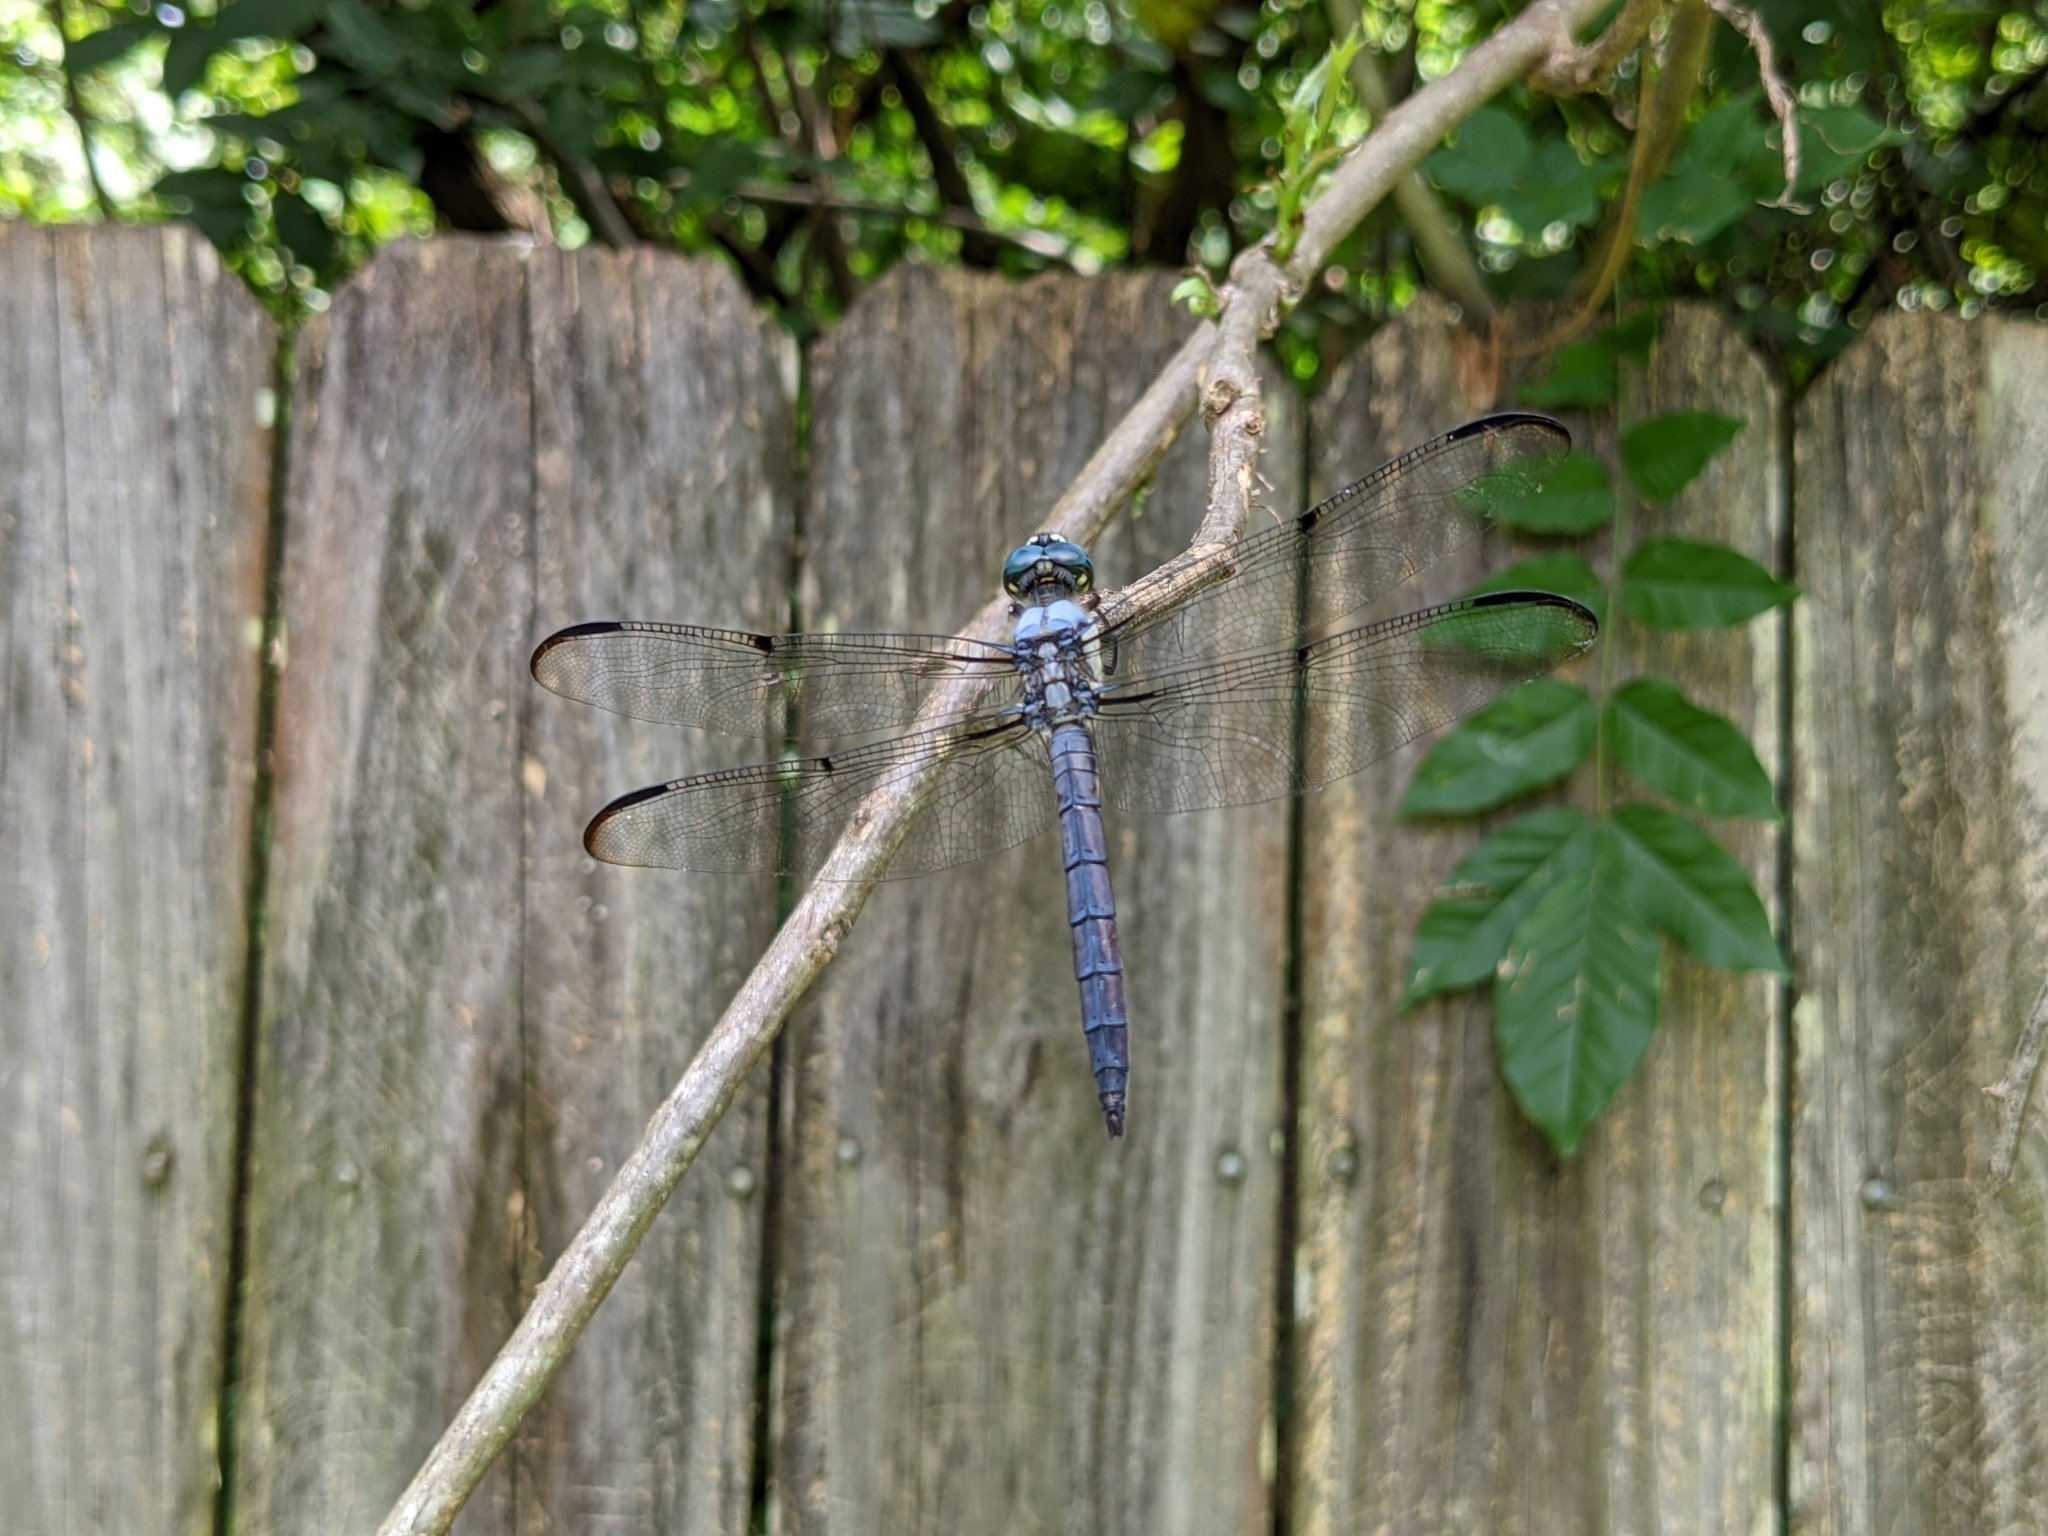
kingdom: Animalia
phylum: Arthropoda
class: Insecta
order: Odonata
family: Libellulidae
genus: Libellula
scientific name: Libellula vibrans
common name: Great blue skimmer
